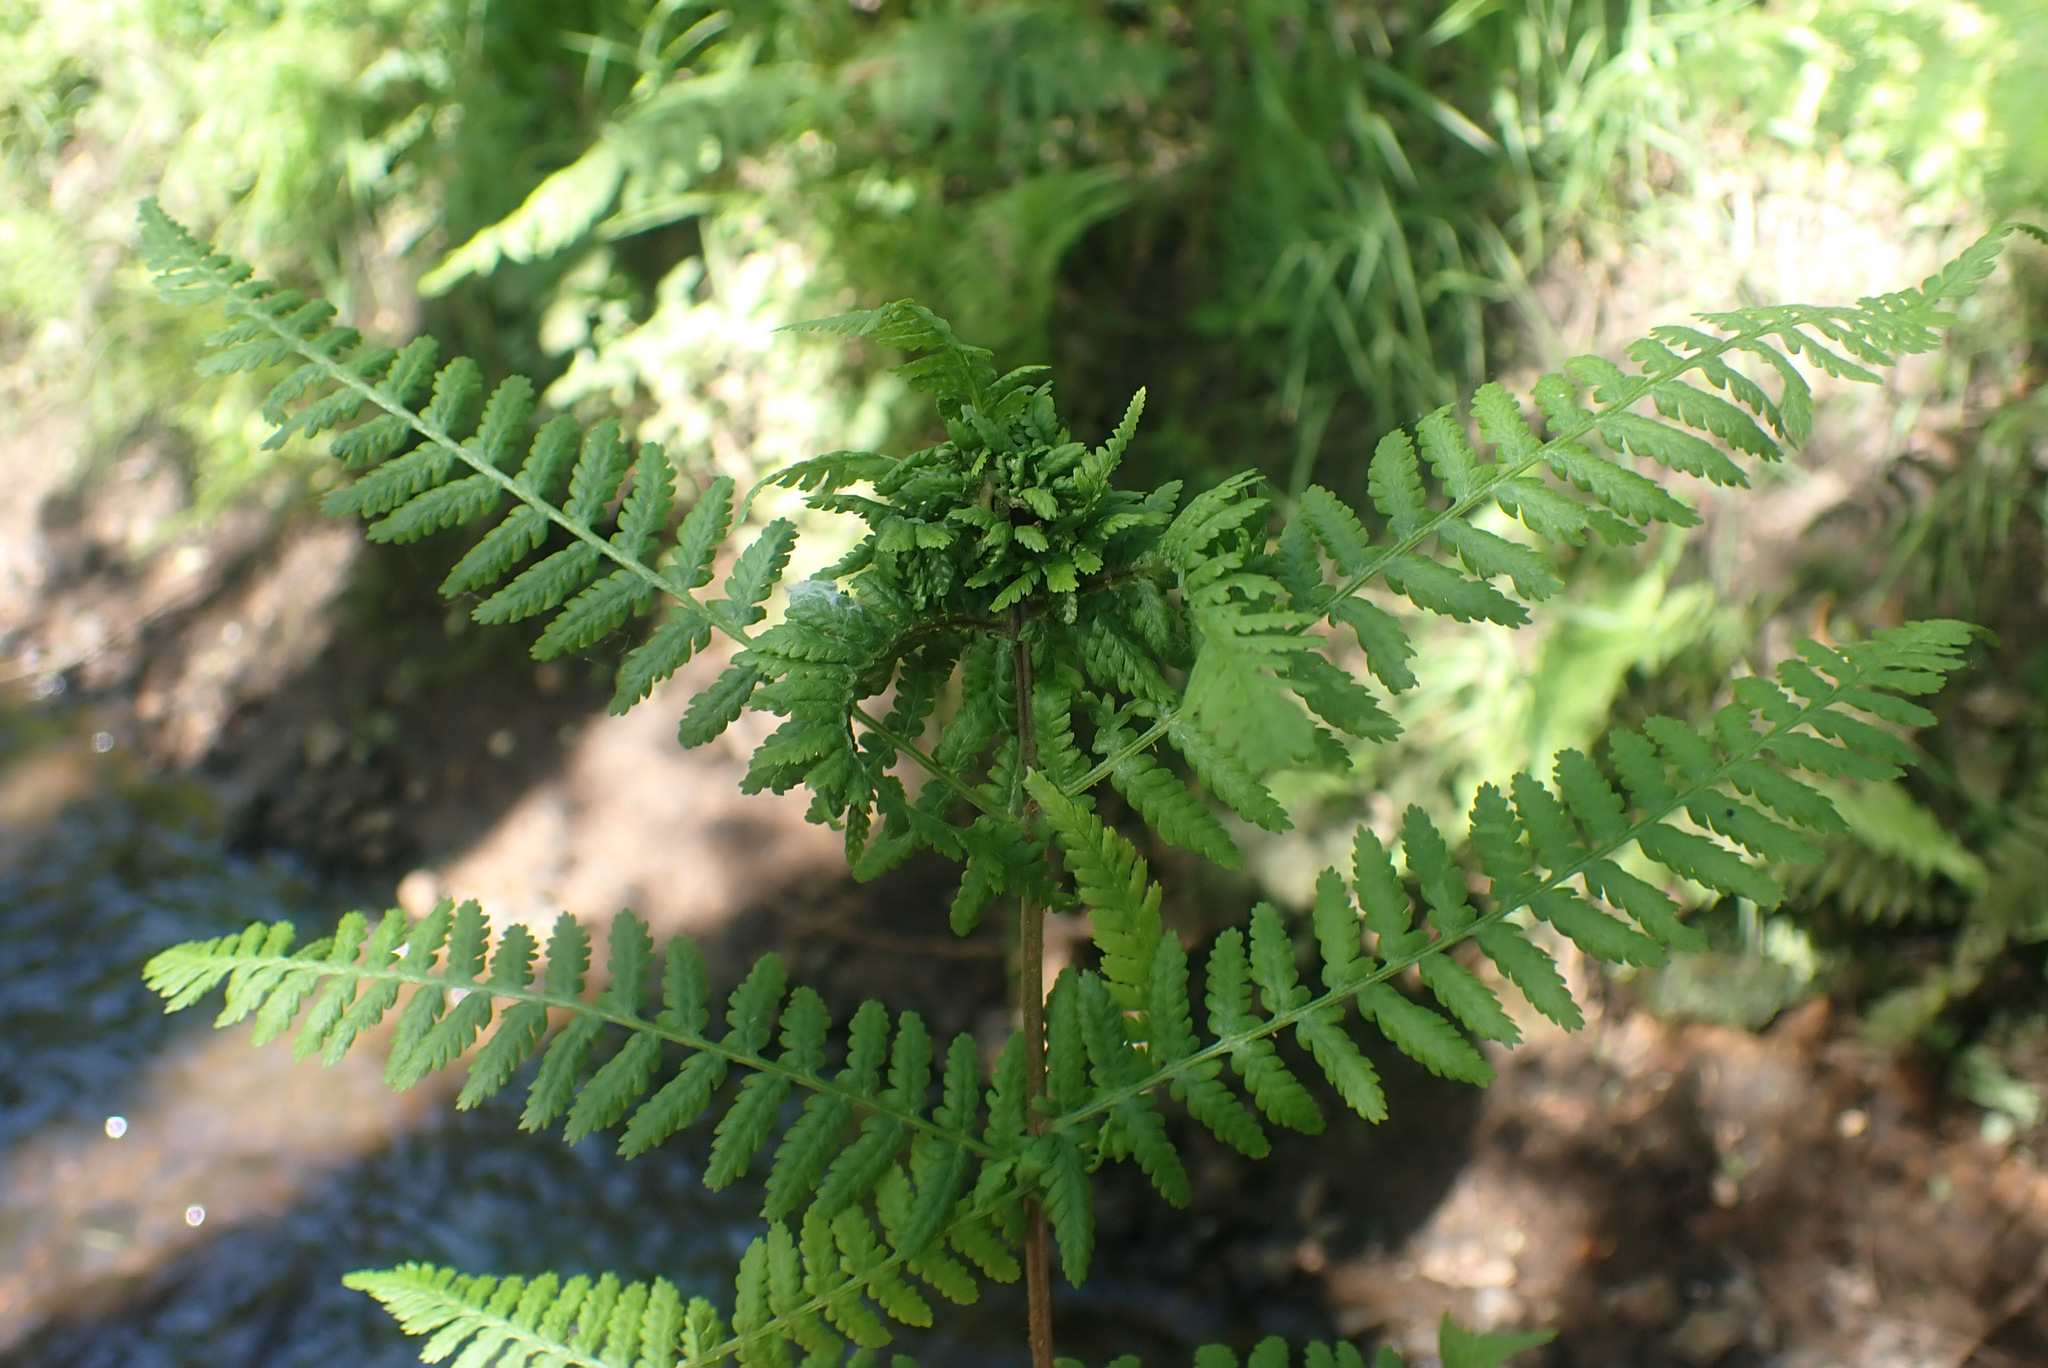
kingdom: Animalia
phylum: Arthropoda
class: Insecta
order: Diptera
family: Anthomyiidae
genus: Chirosia
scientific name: Chirosia betuleti
